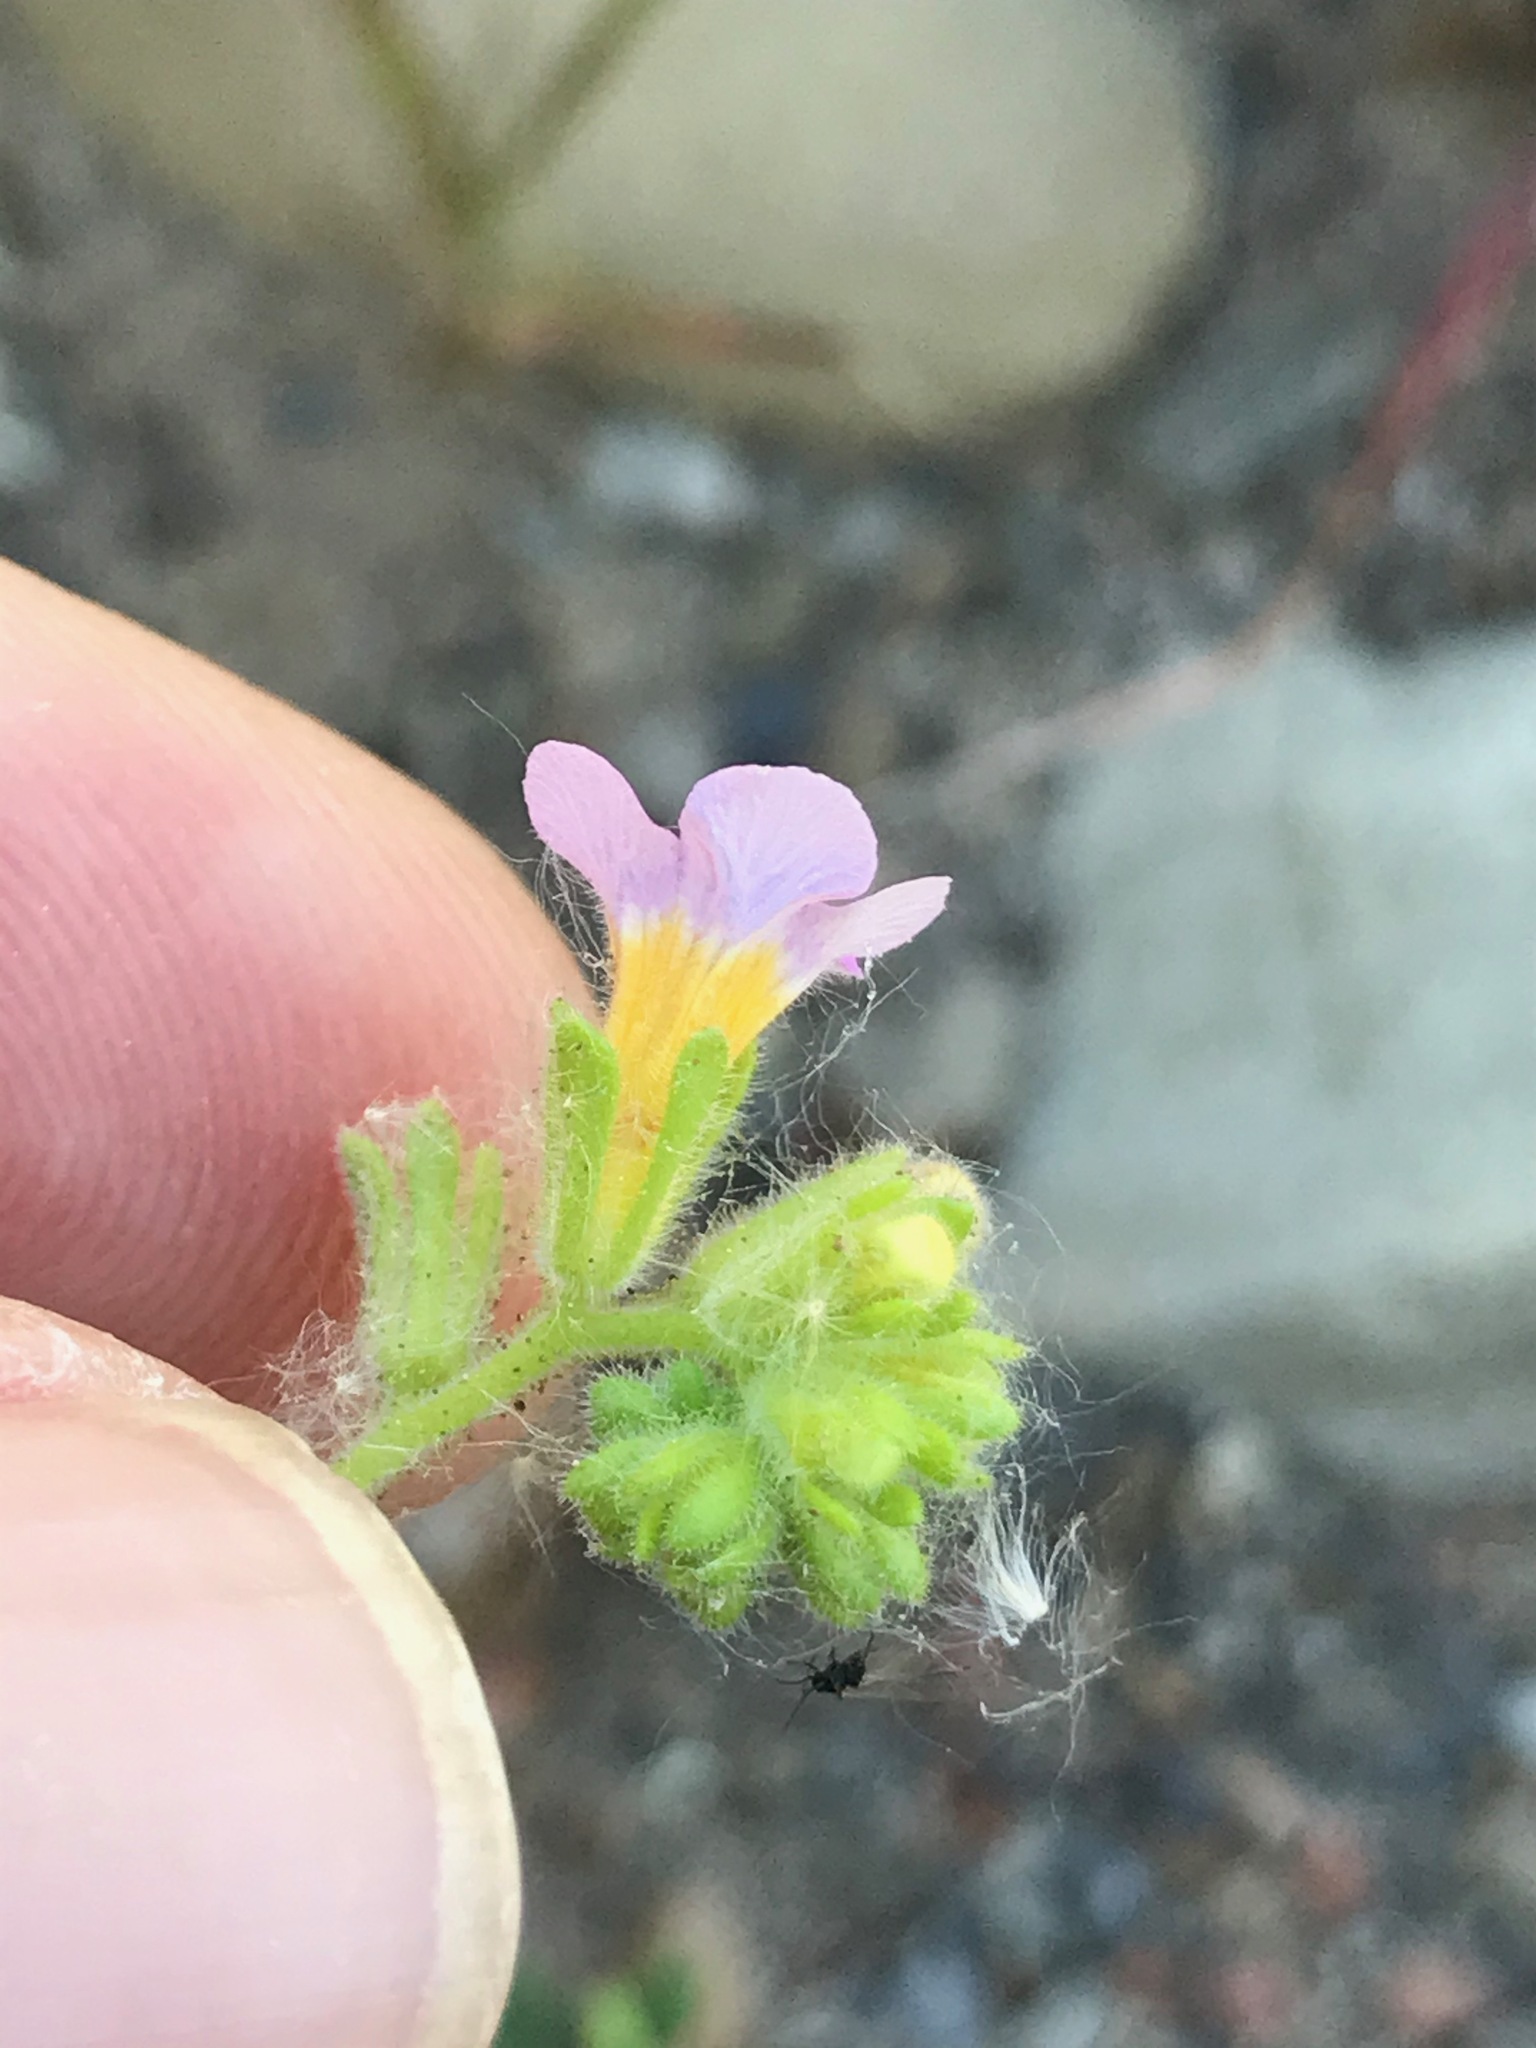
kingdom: Plantae
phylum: Tracheophyta
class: Magnoliopsida
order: Boraginales
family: Hydrophyllaceae
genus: Phacelia
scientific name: Phacelia brachyloba
